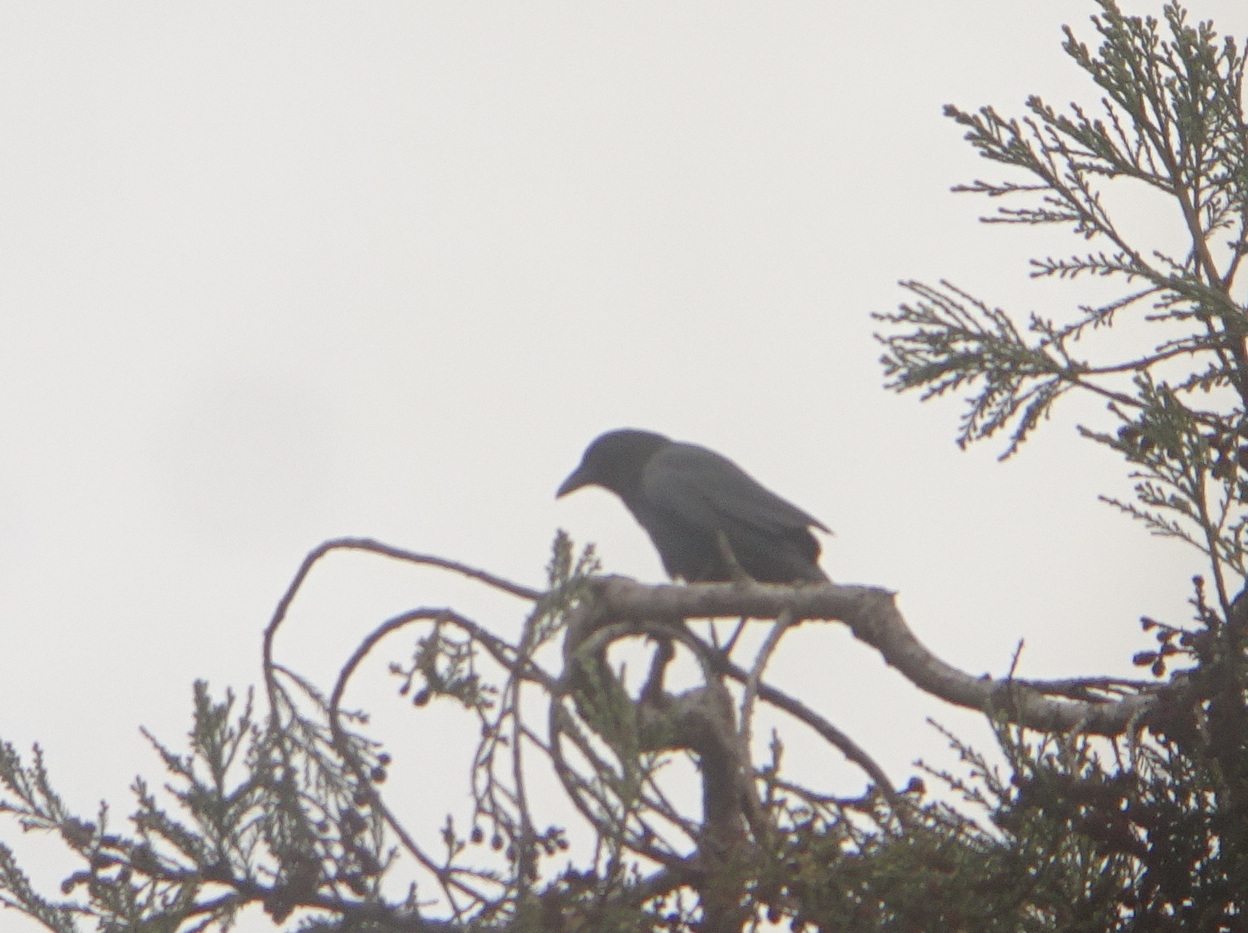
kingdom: Animalia
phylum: Chordata
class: Aves
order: Passeriformes
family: Corvidae
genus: Corvus
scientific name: Corvus brachyrhynchos
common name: American crow
